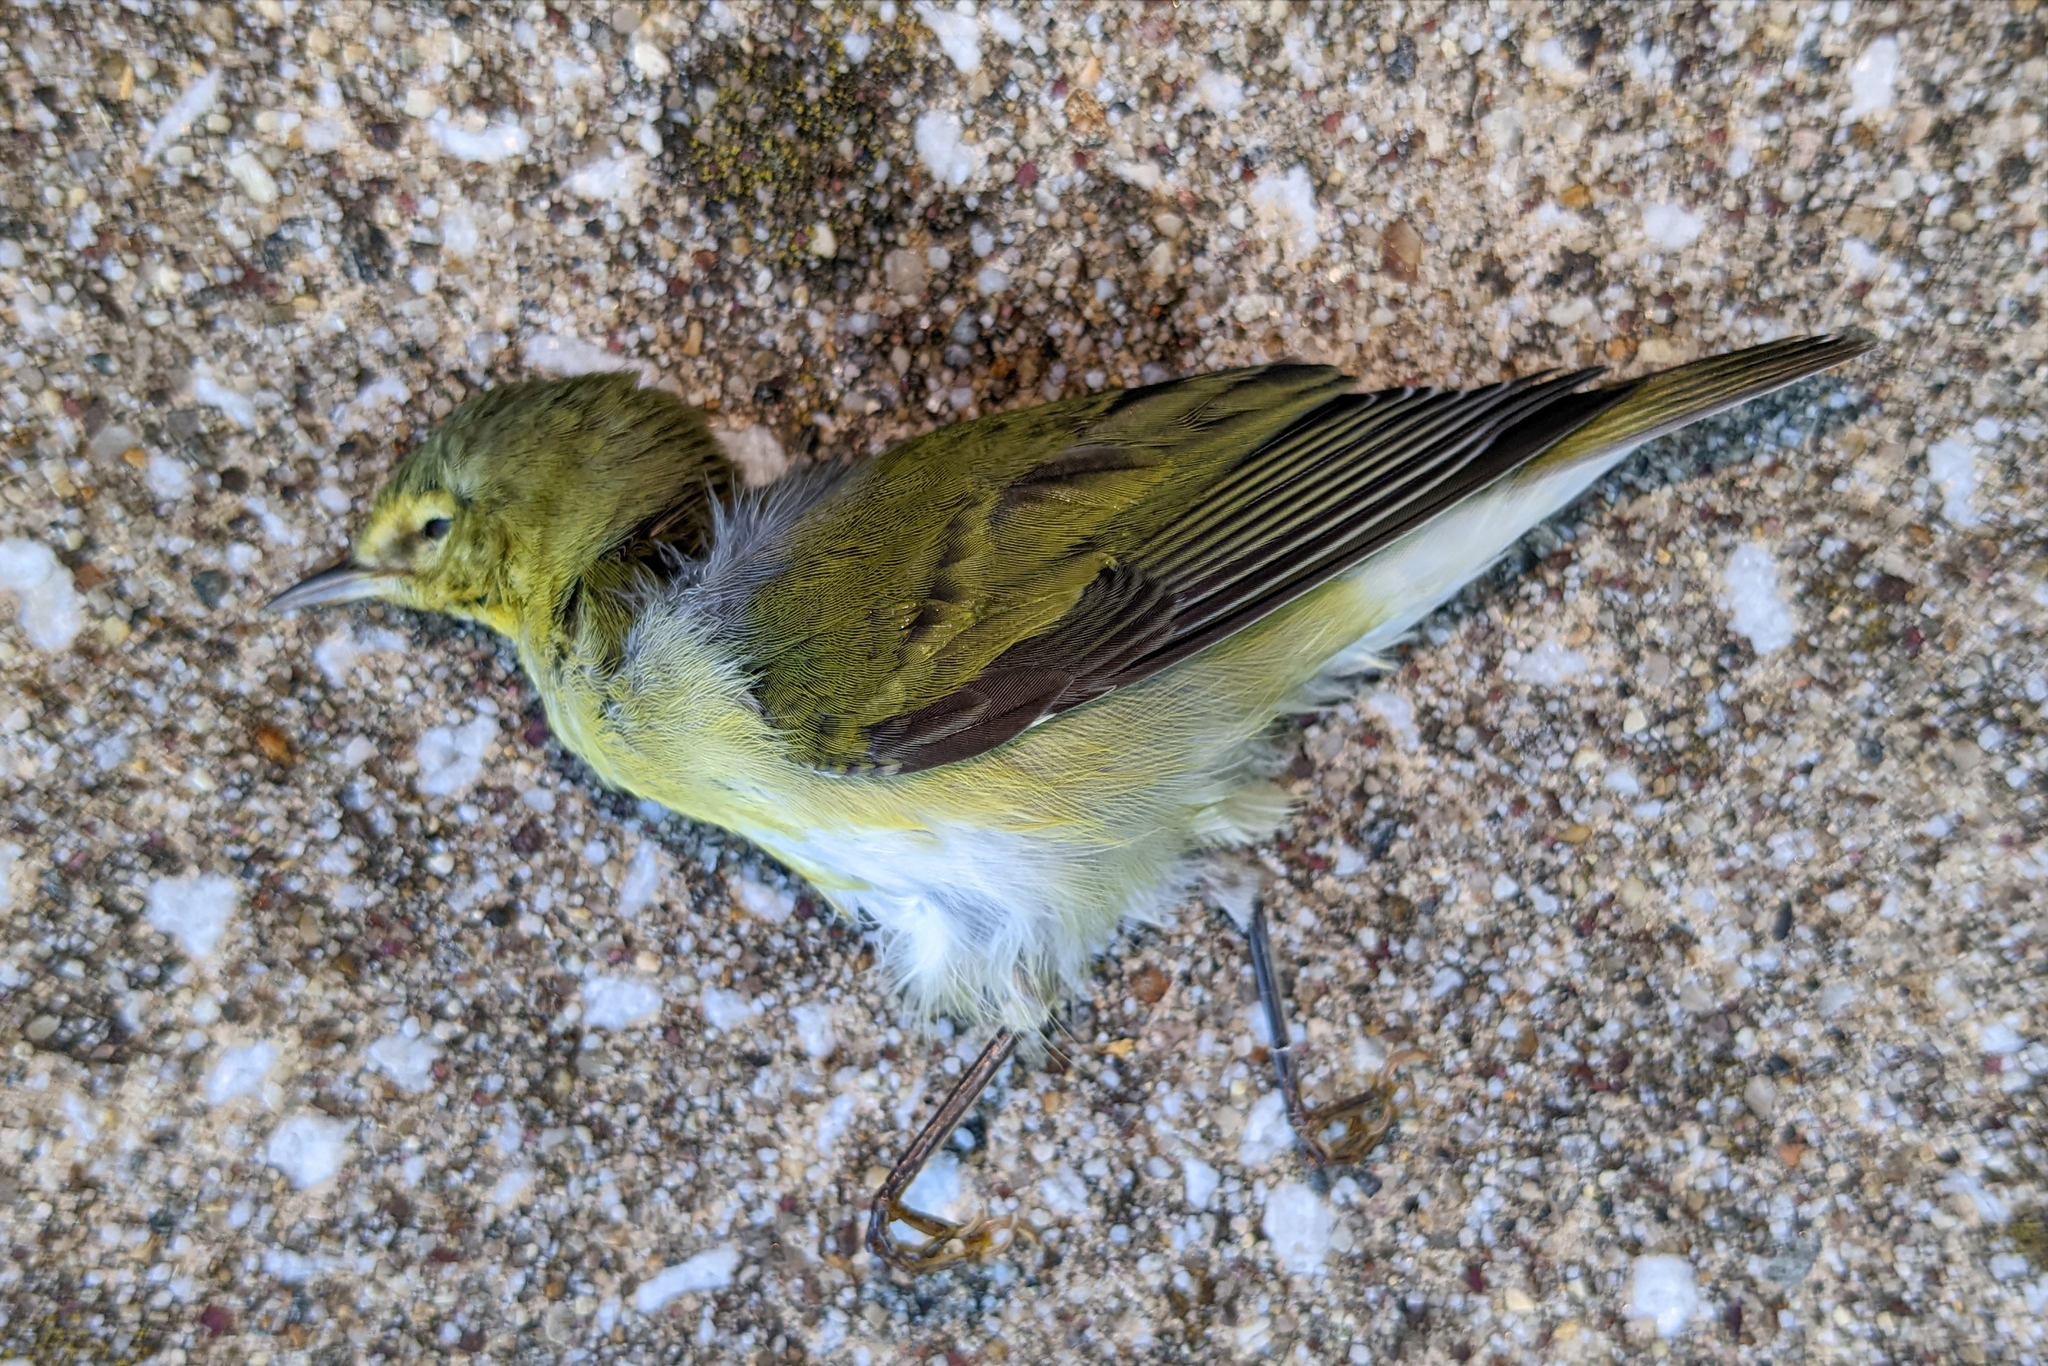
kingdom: Animalia
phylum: Chordata
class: Aves
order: Passeriformes
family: Parulidae
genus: Leiothlypis
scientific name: Leiothlypis peregrina
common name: Tennessee warbler
